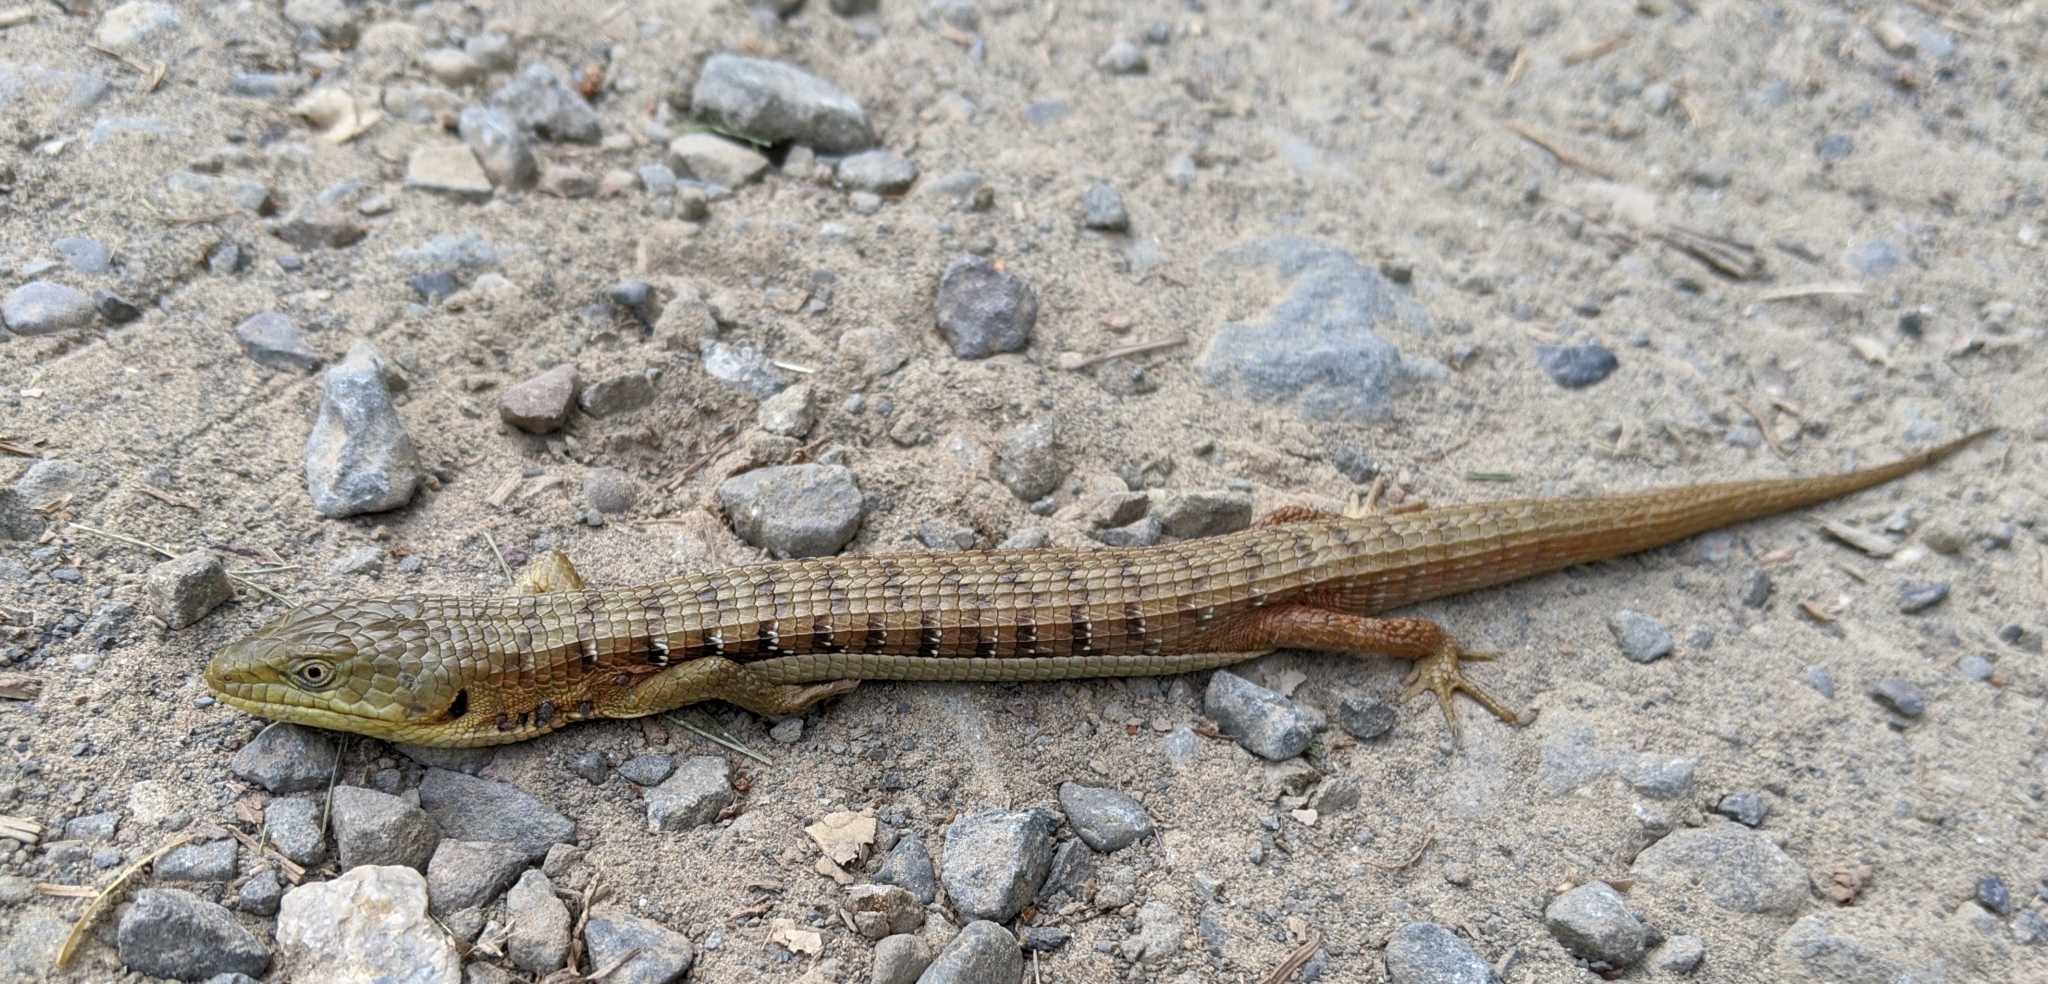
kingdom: Animalia
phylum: Chordata
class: Squamata
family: Anguidae
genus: Elgaria
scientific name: Elgaria multicarinata
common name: Southern alligator lizard
